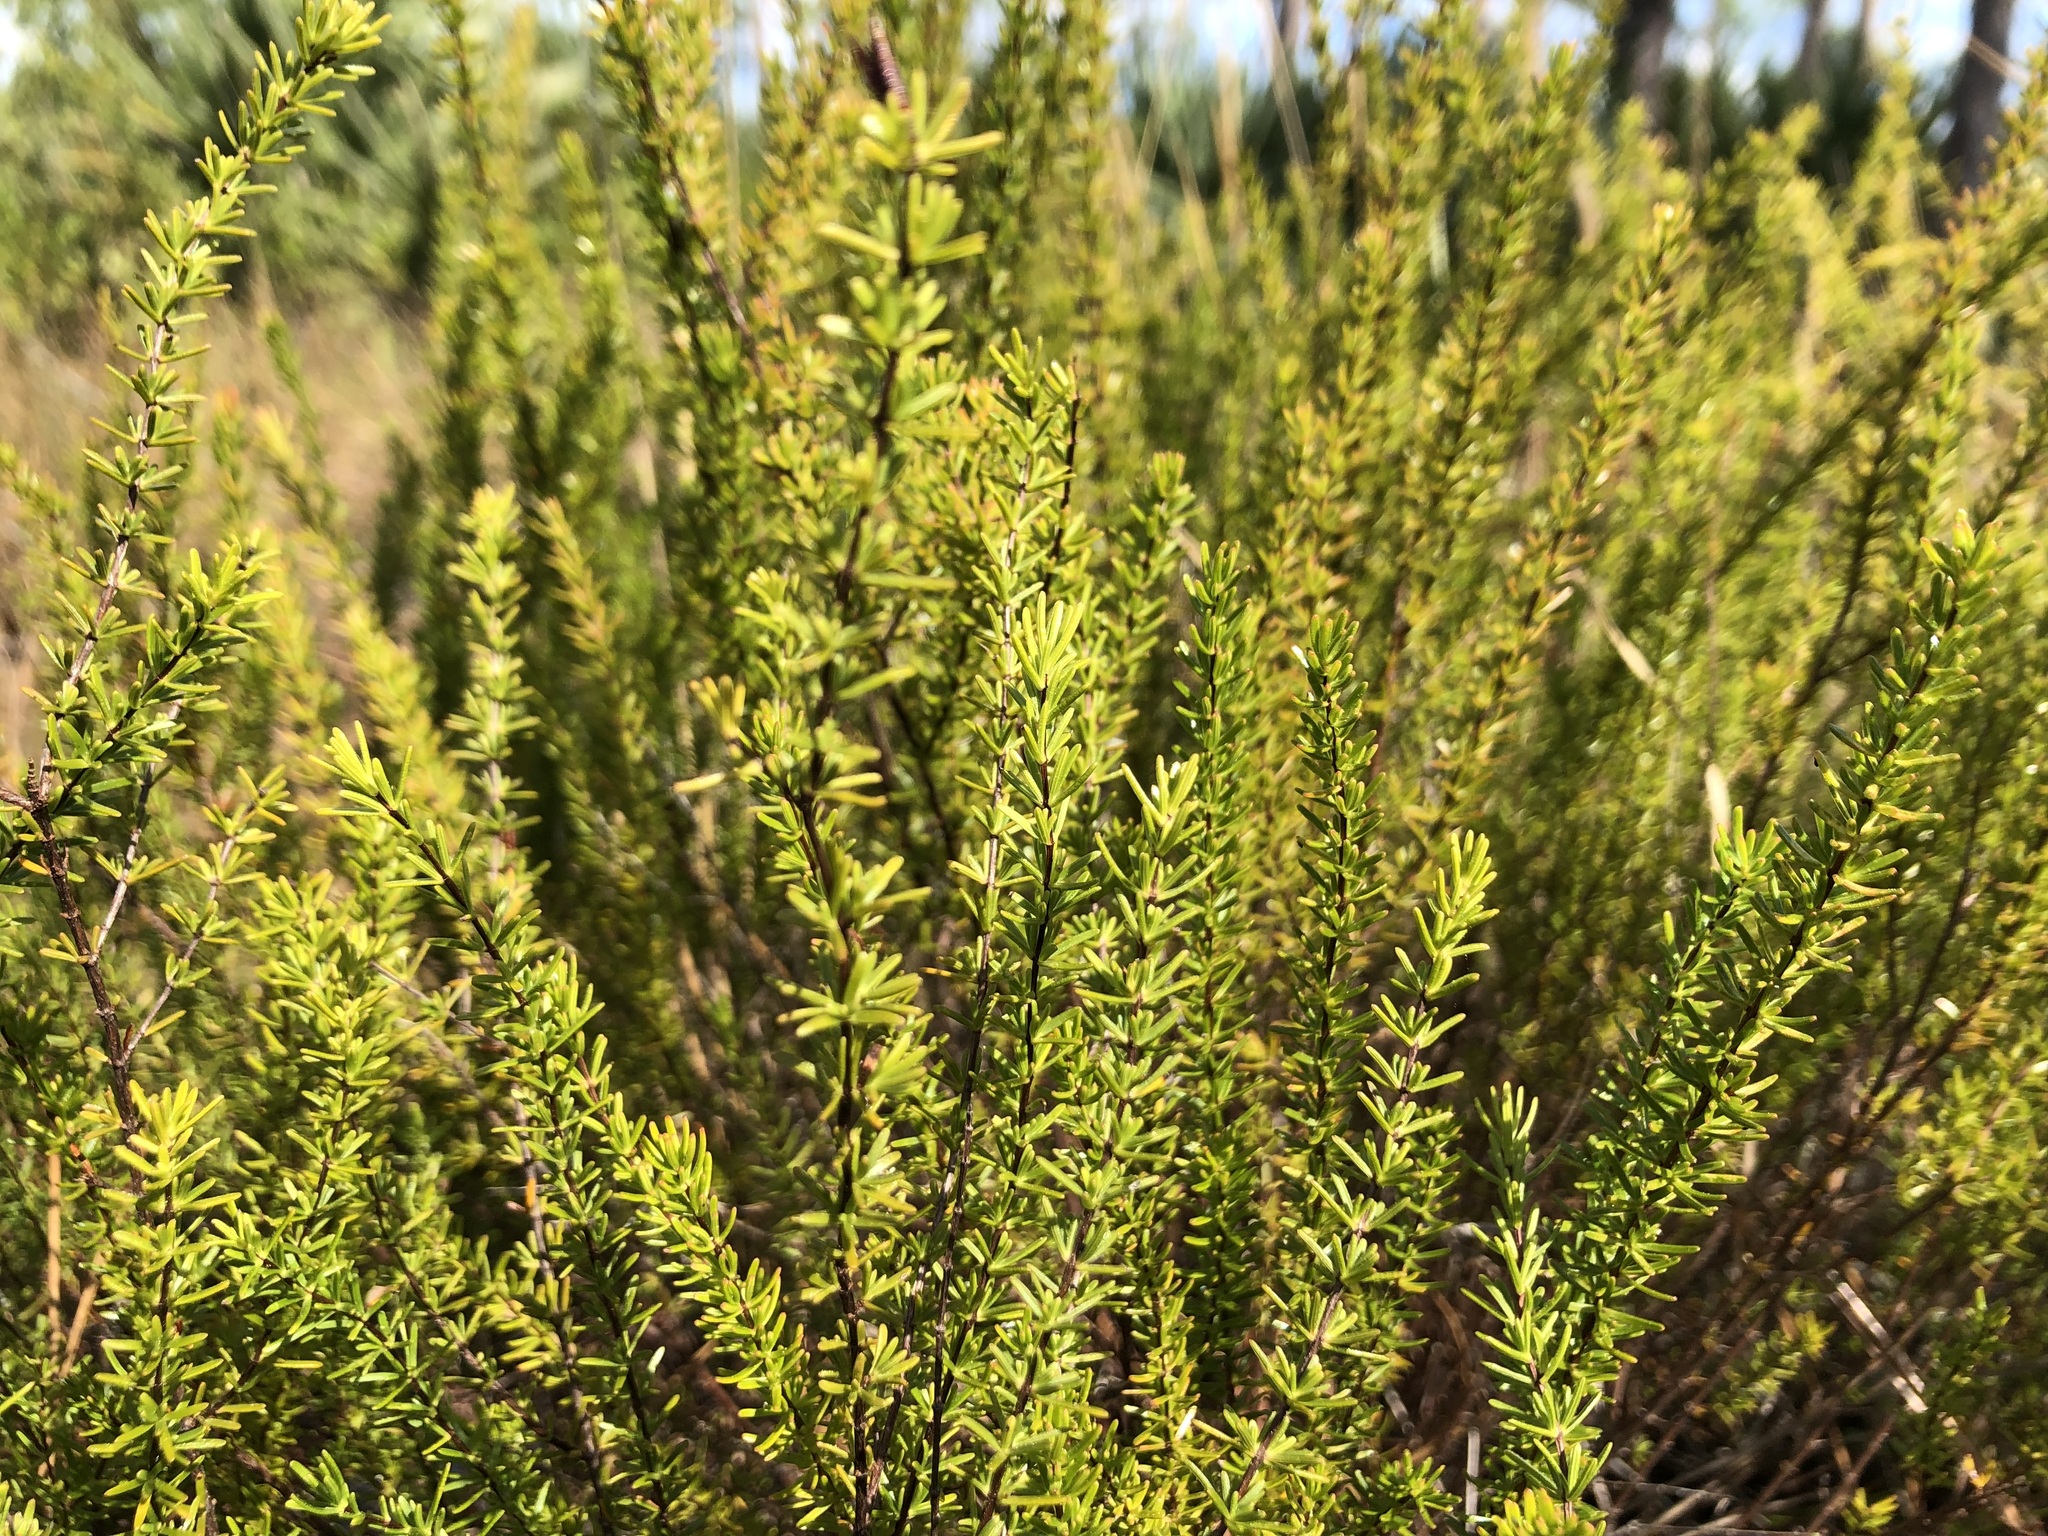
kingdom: Plantae
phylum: Tracheophyta
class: Magnoliopsida
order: Malpighiales
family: Hypericaceae
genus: Hypericum
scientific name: Hypericum tenuifolium
